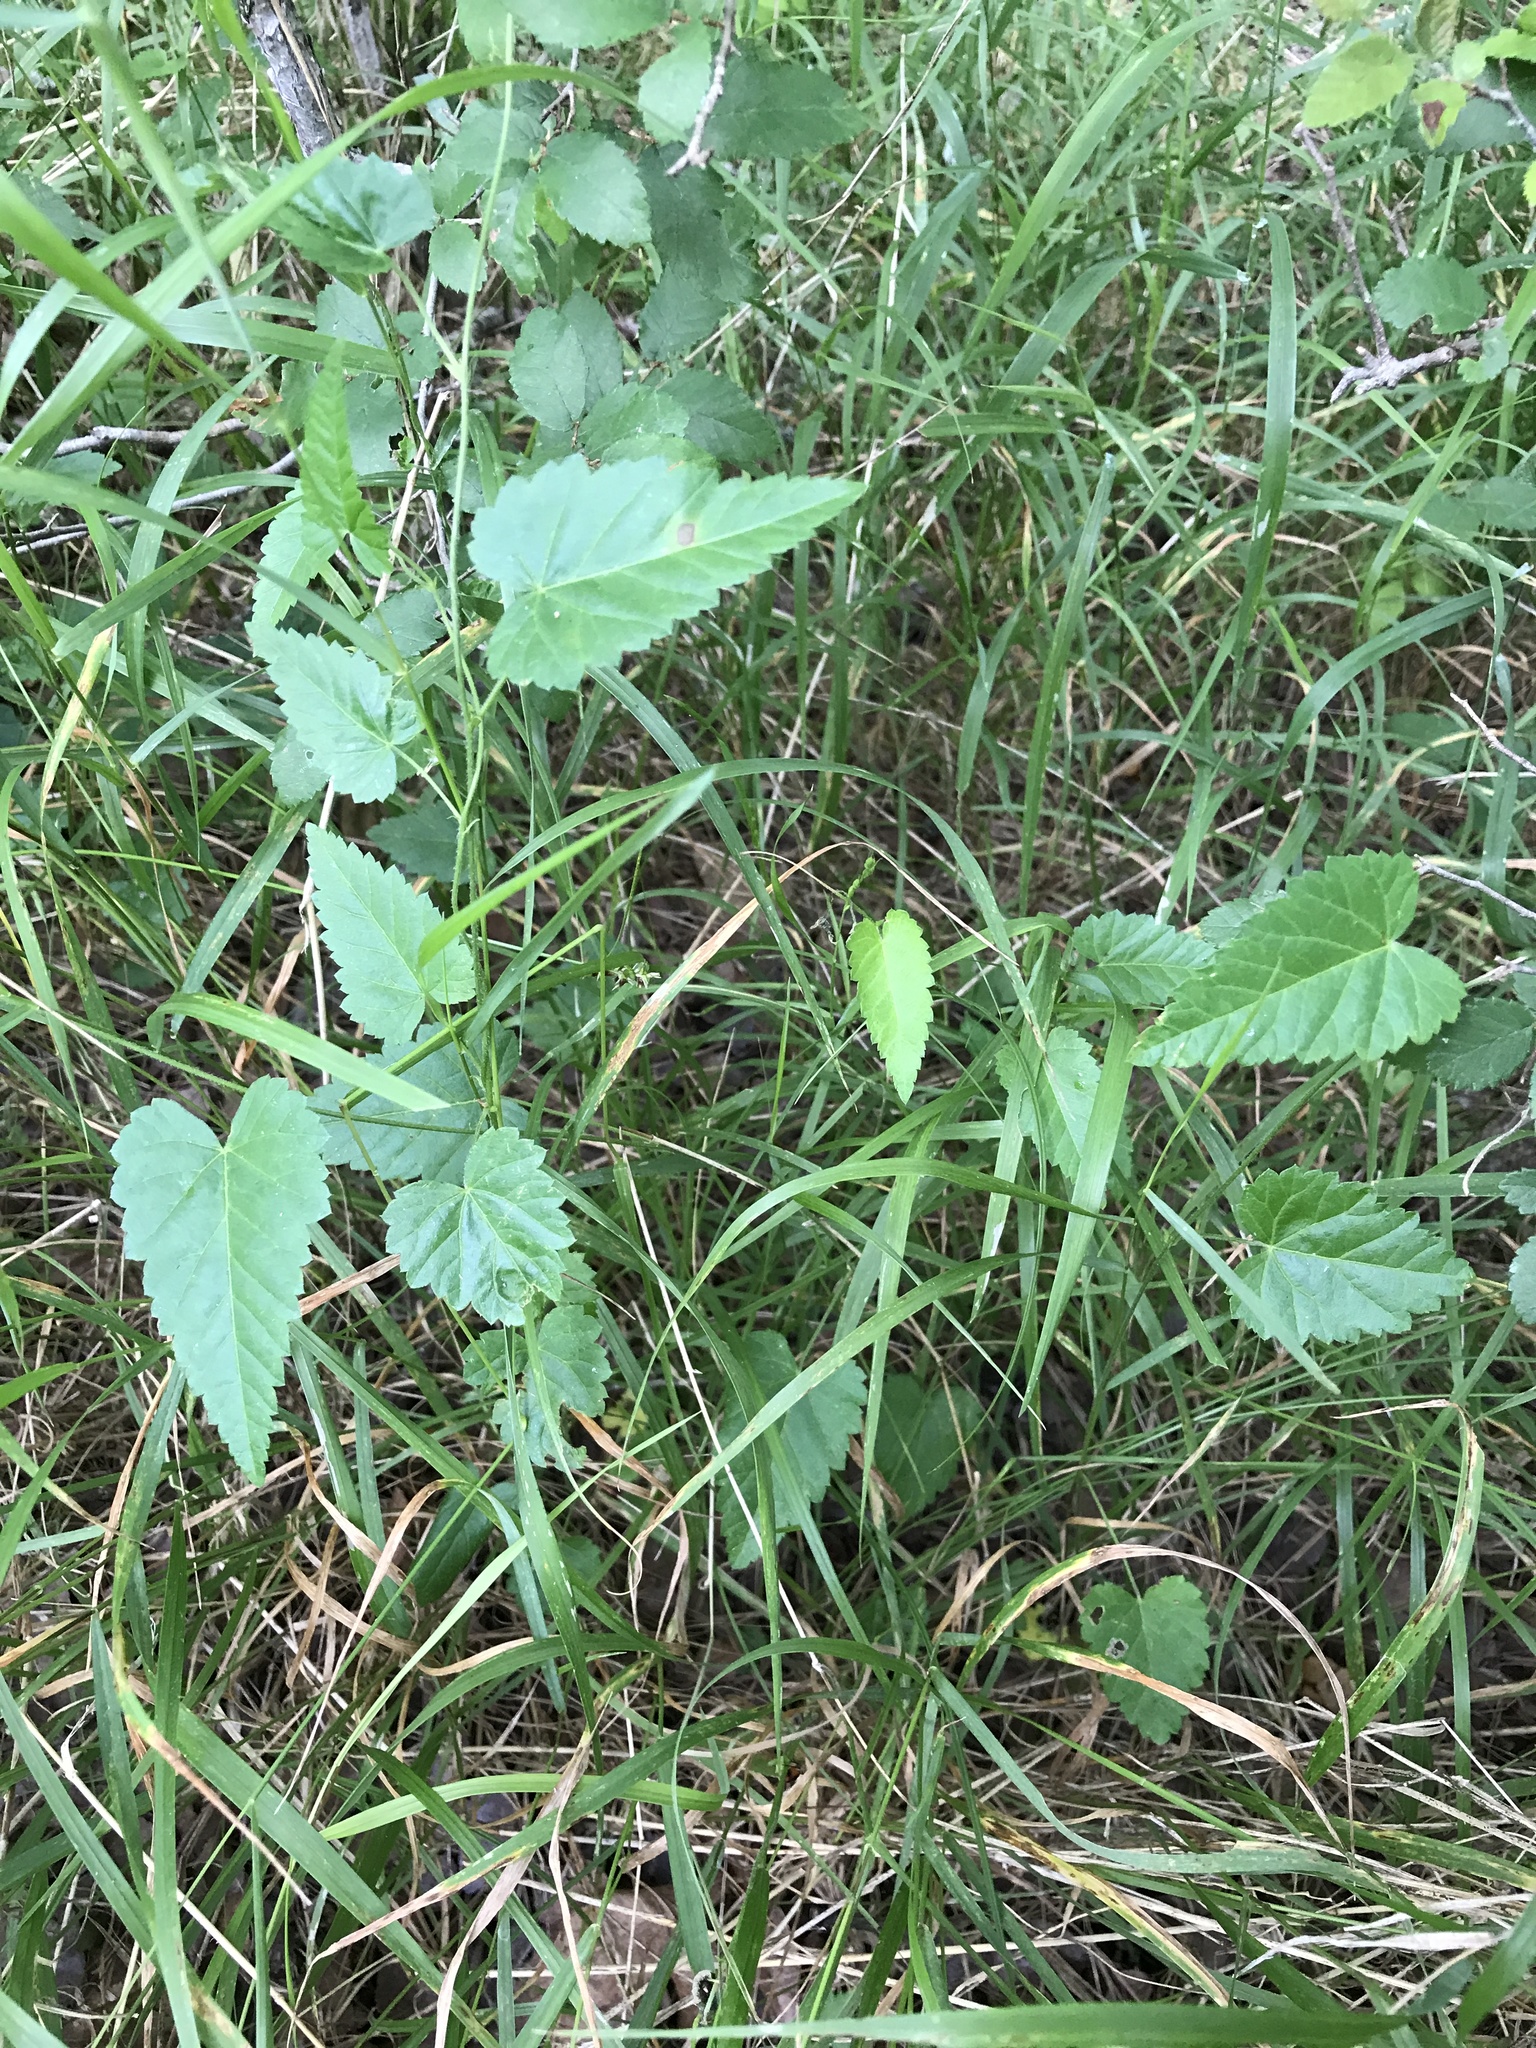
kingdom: Plantae
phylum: Tracheophyta
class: Magnoliopsida
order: Malpighiales
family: Euphorbiaceae
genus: Tragia
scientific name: Tragia urticifolia
